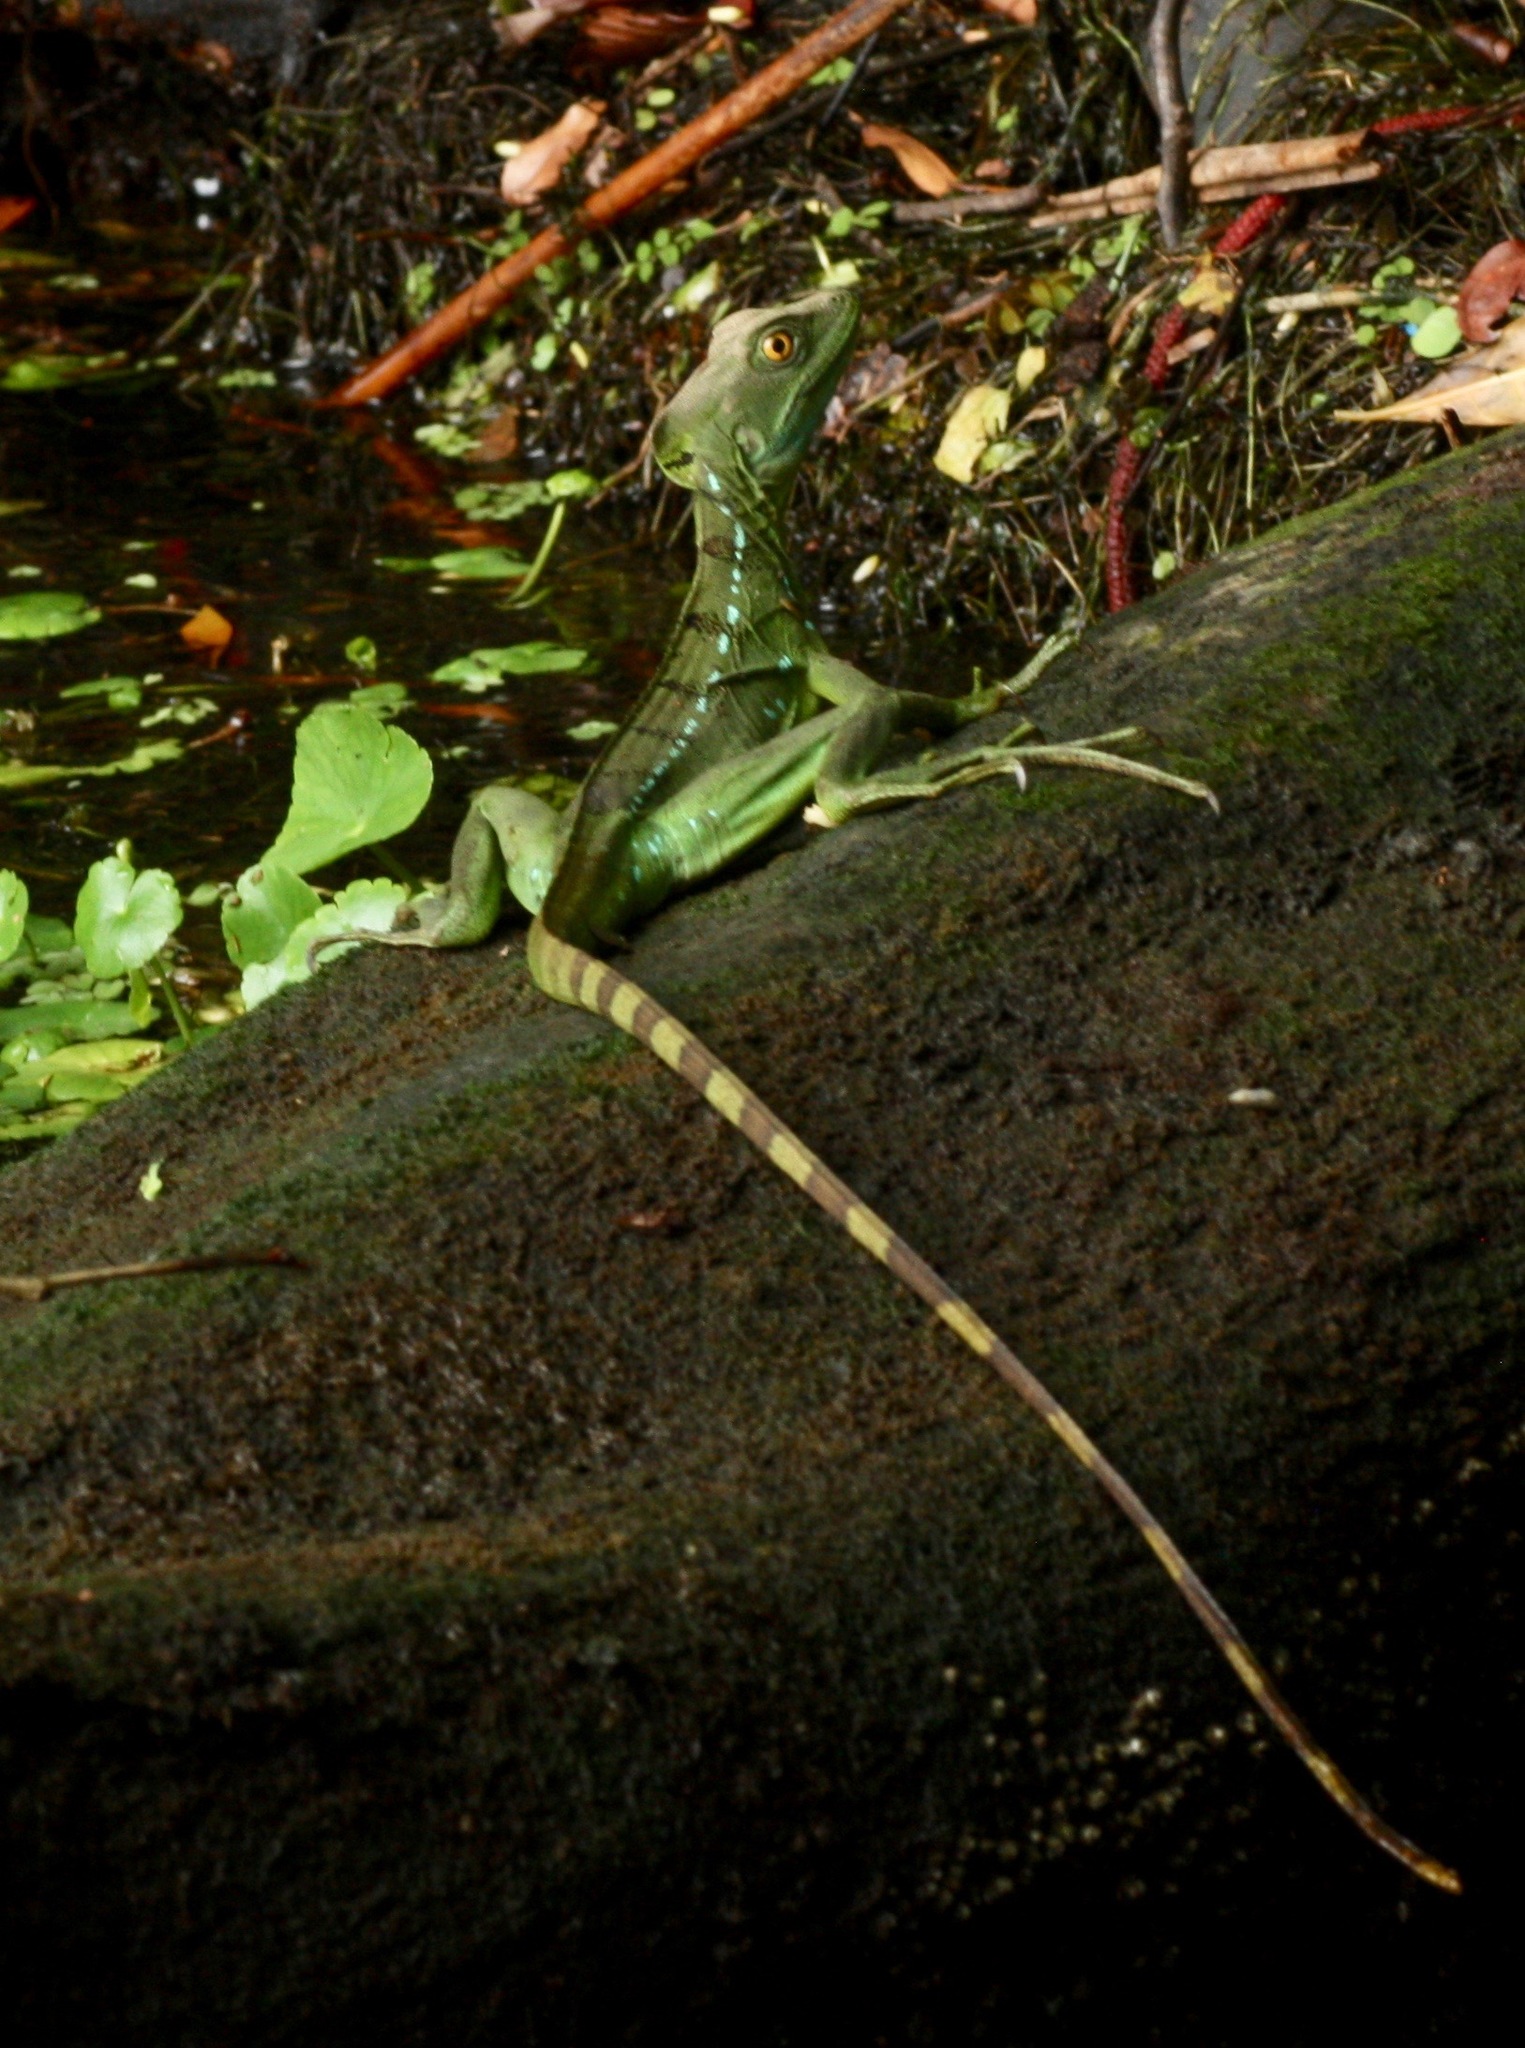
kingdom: Animalia
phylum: Chordata
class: Squamata
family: Corytophanidae
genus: Basiliscus
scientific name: Basiliscus plumifrons
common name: Green basilisk
